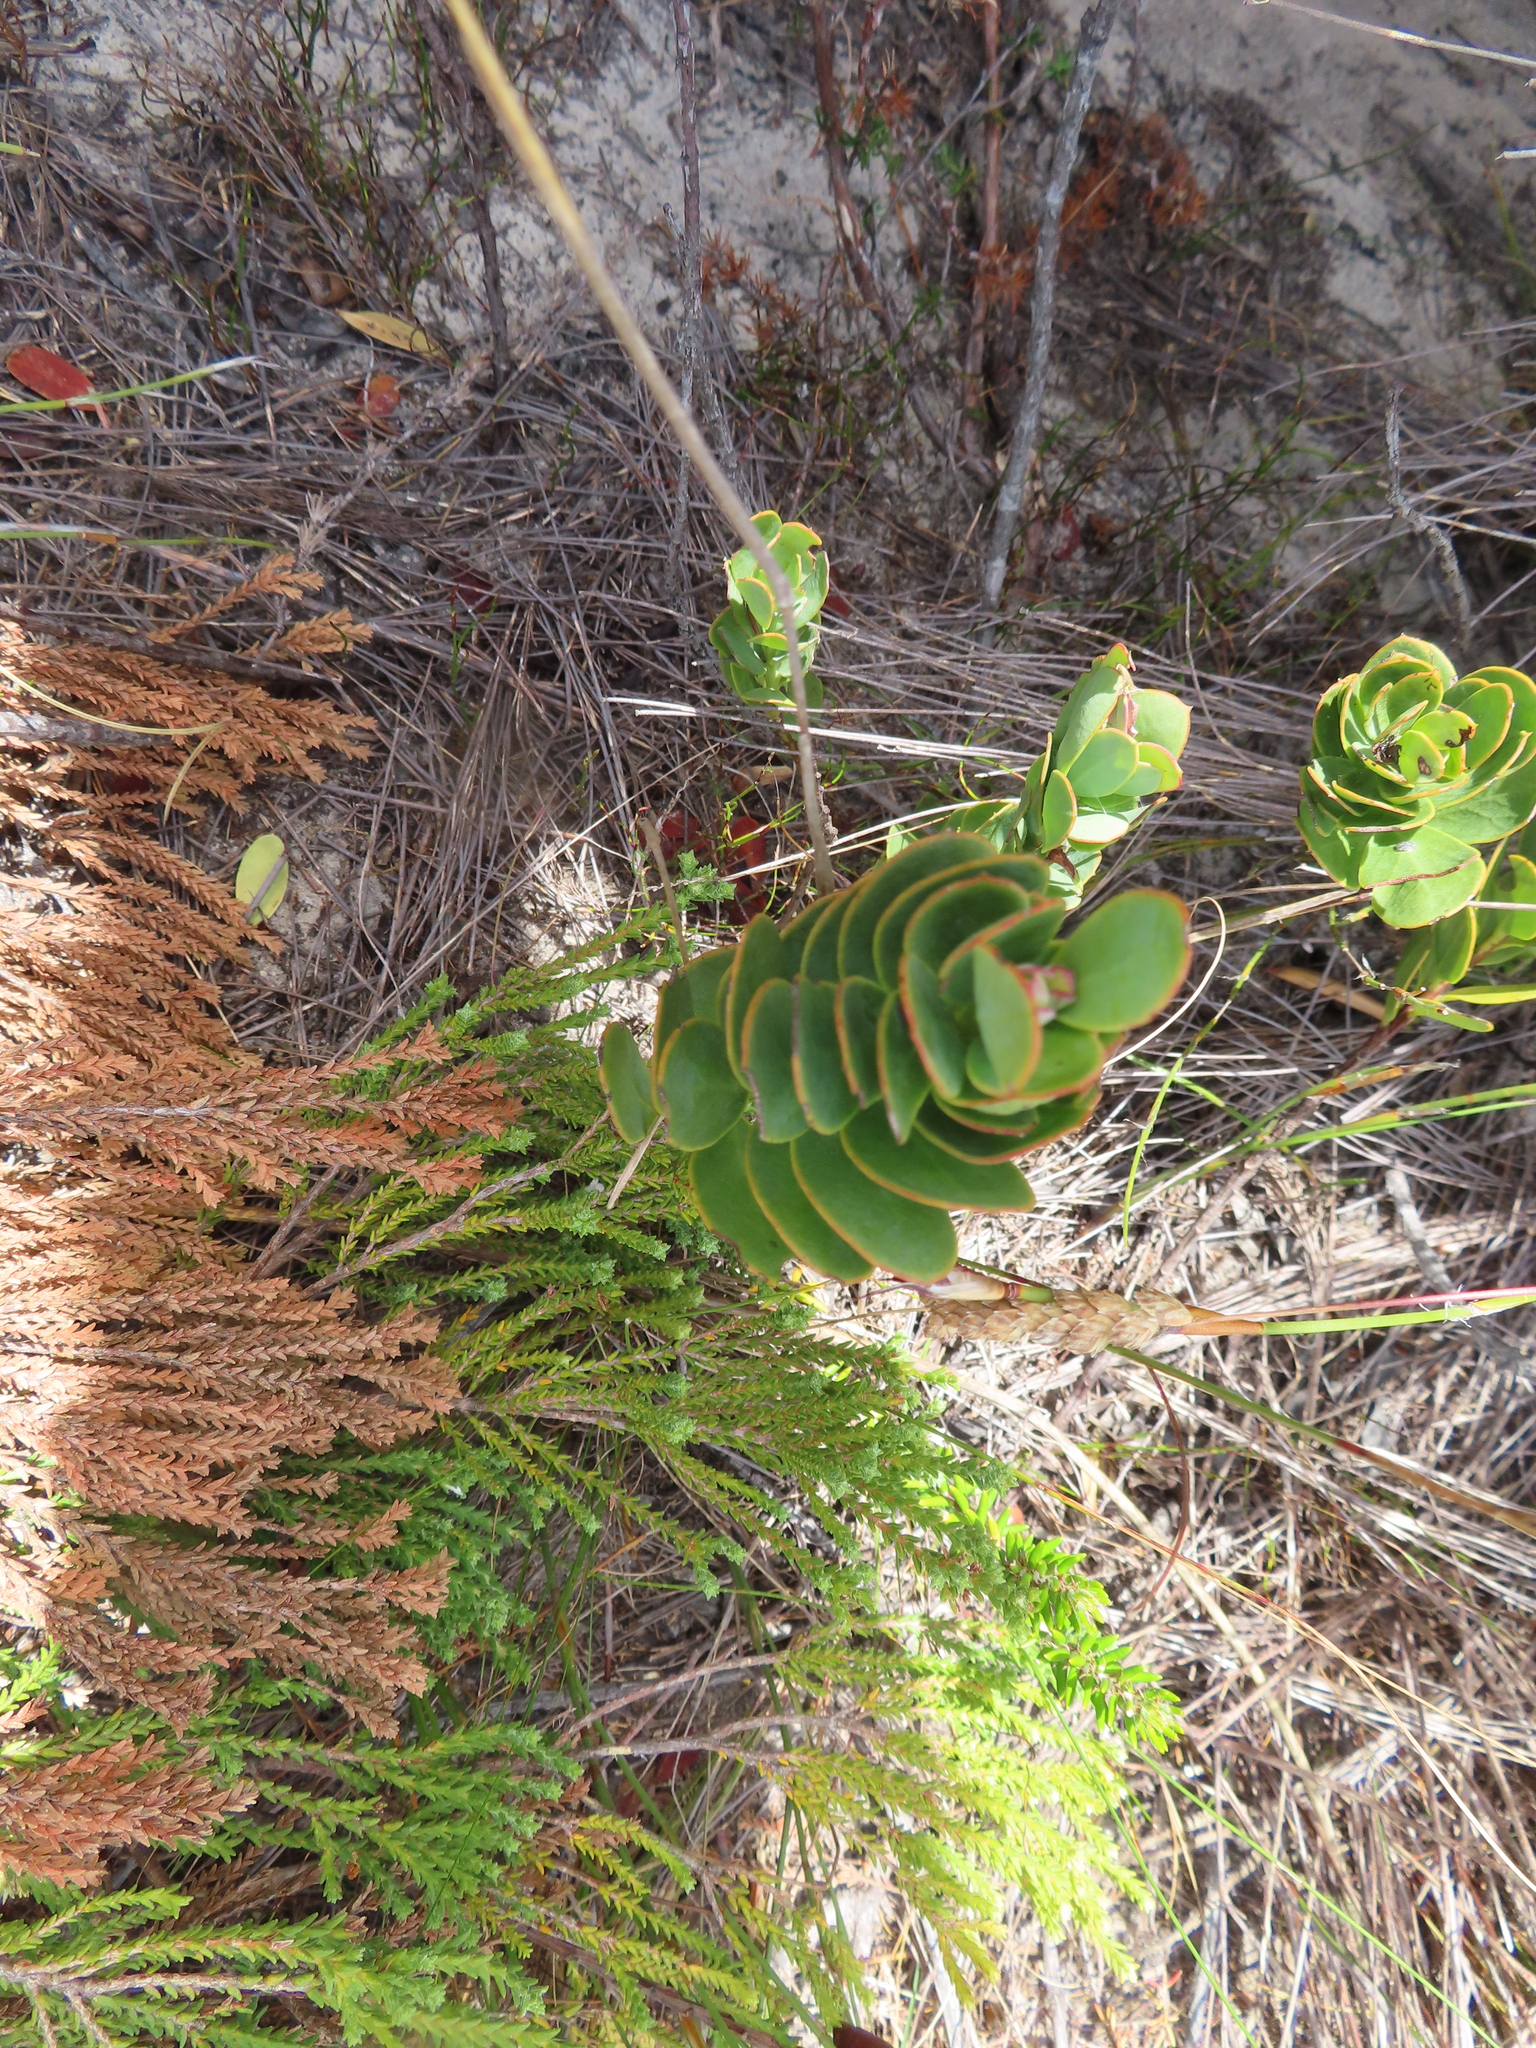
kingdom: Plantae
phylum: Tracheophyta
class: Magnoliopsida
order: Santalales
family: Santalaceae
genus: Osyris
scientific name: Osyris compressa
